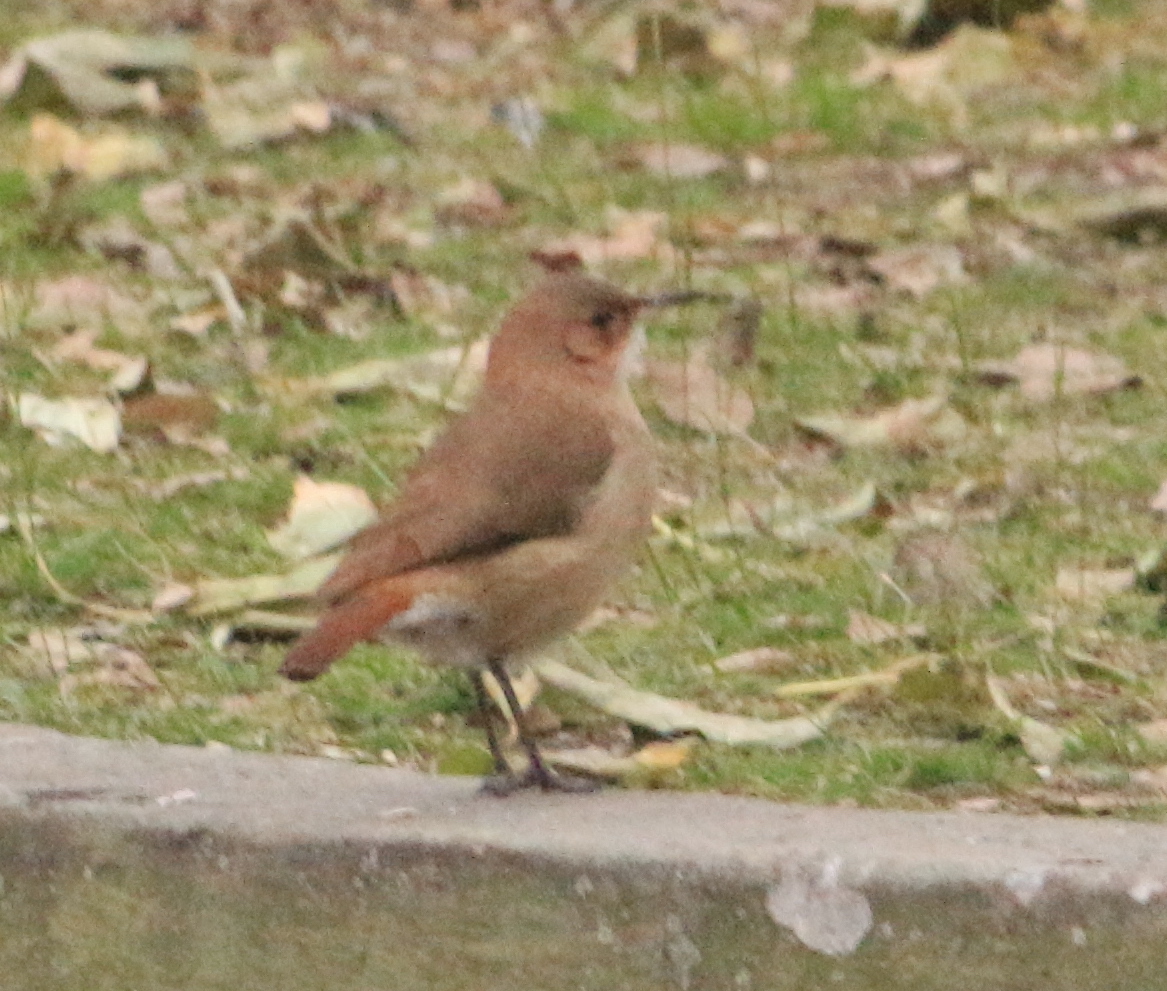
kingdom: Animalia
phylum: Chordata
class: Aves
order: Passeriformes
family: Furnariidae
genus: Furnarius
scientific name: Furnarius rufus
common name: Rufous hornero
